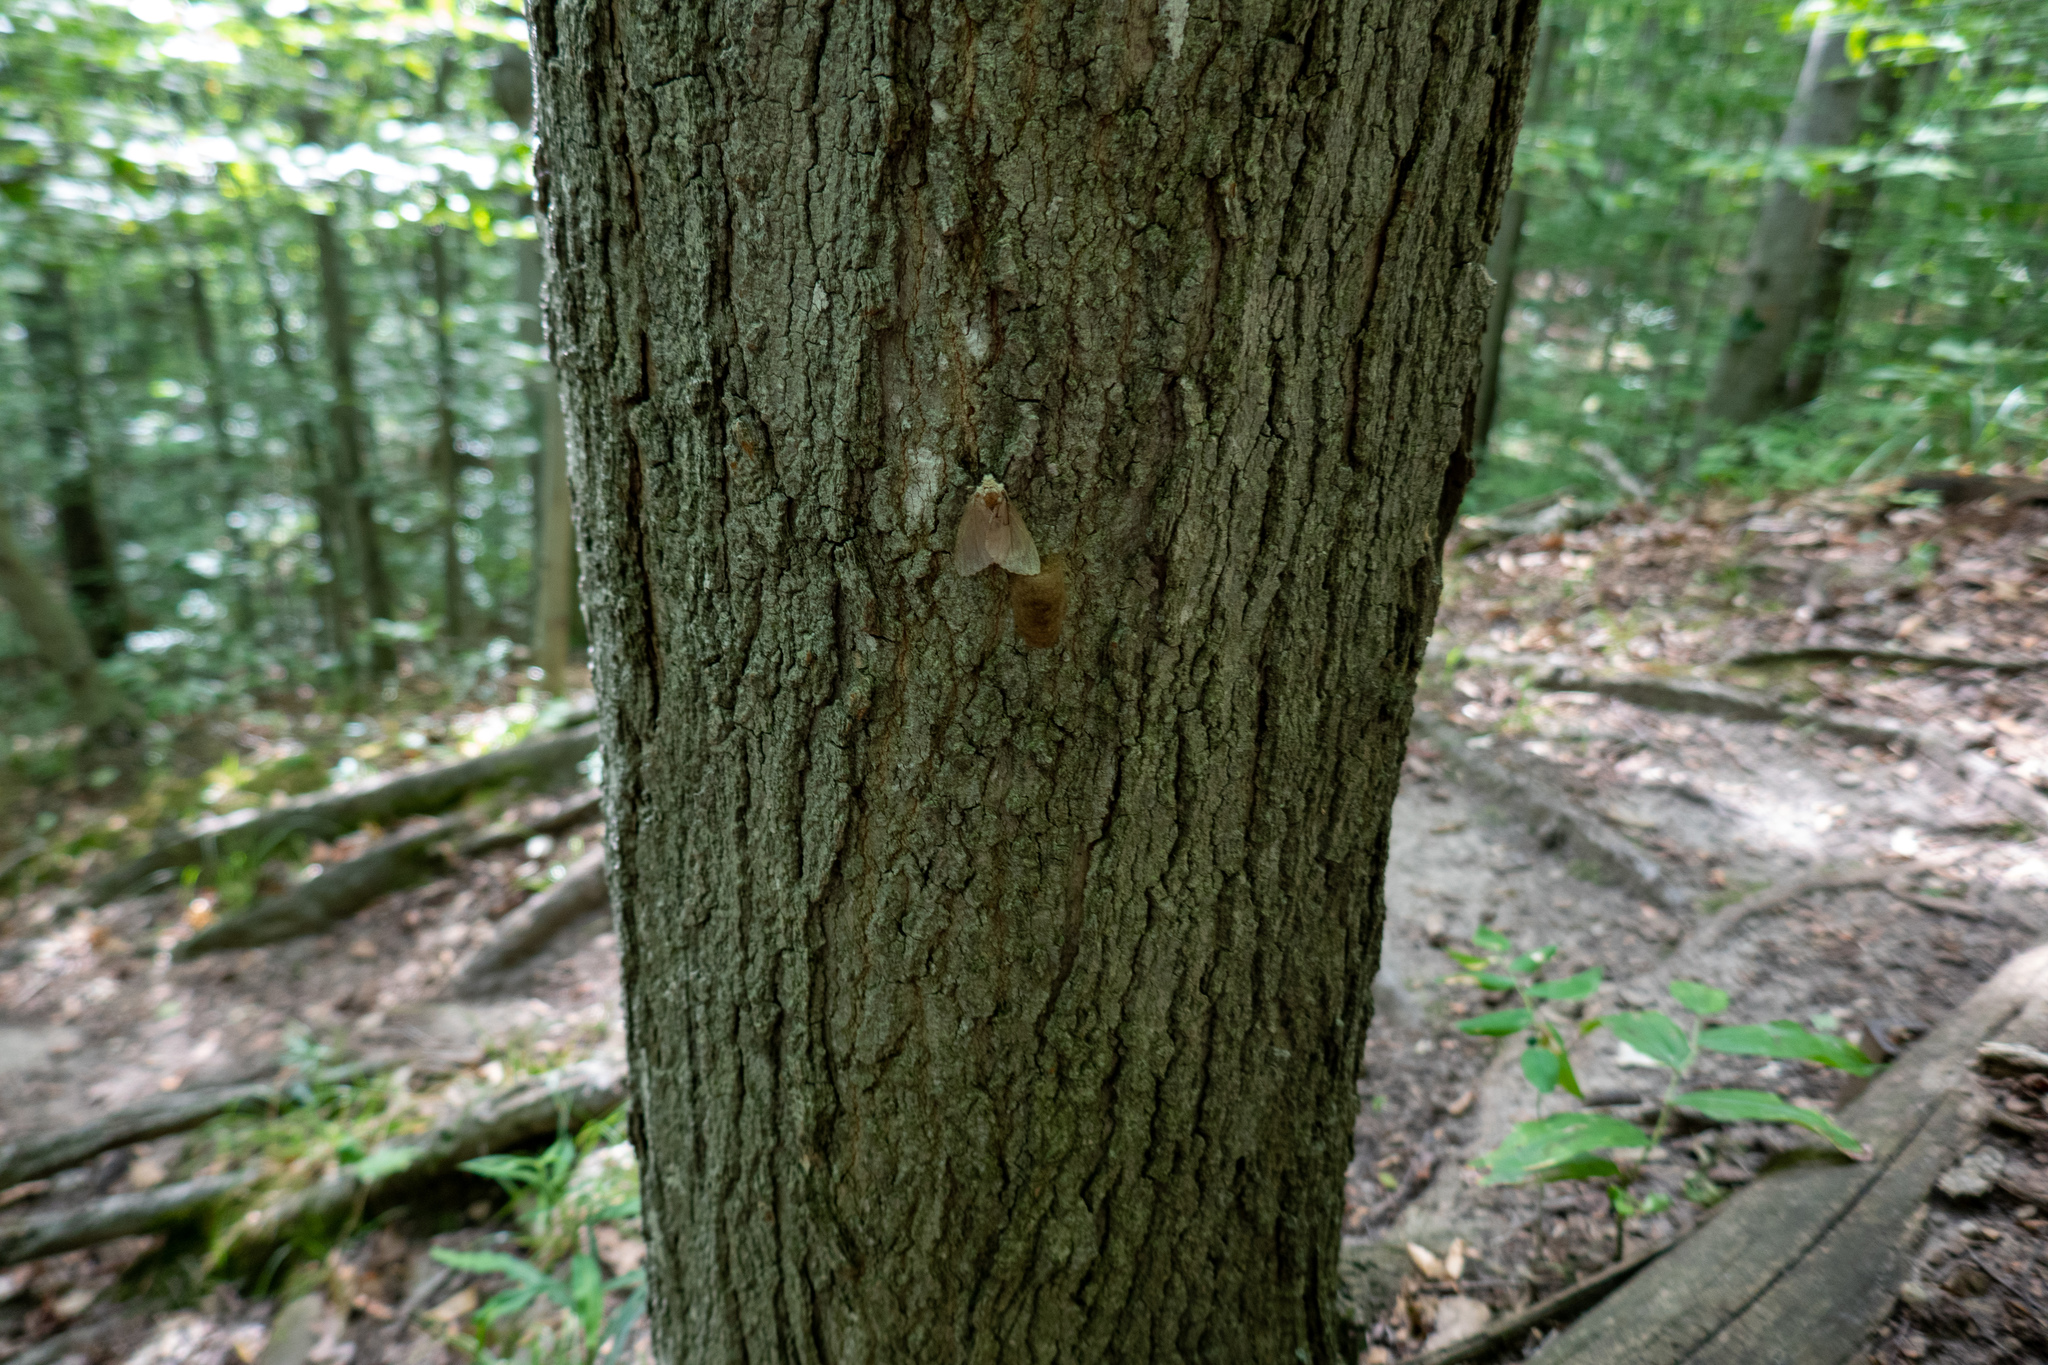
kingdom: Animalia
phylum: Arthropoda
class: Insecta
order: Lepidoptera
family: Erebidae
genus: Lymantria
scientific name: Lymantria dispar
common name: Gypsy moth
